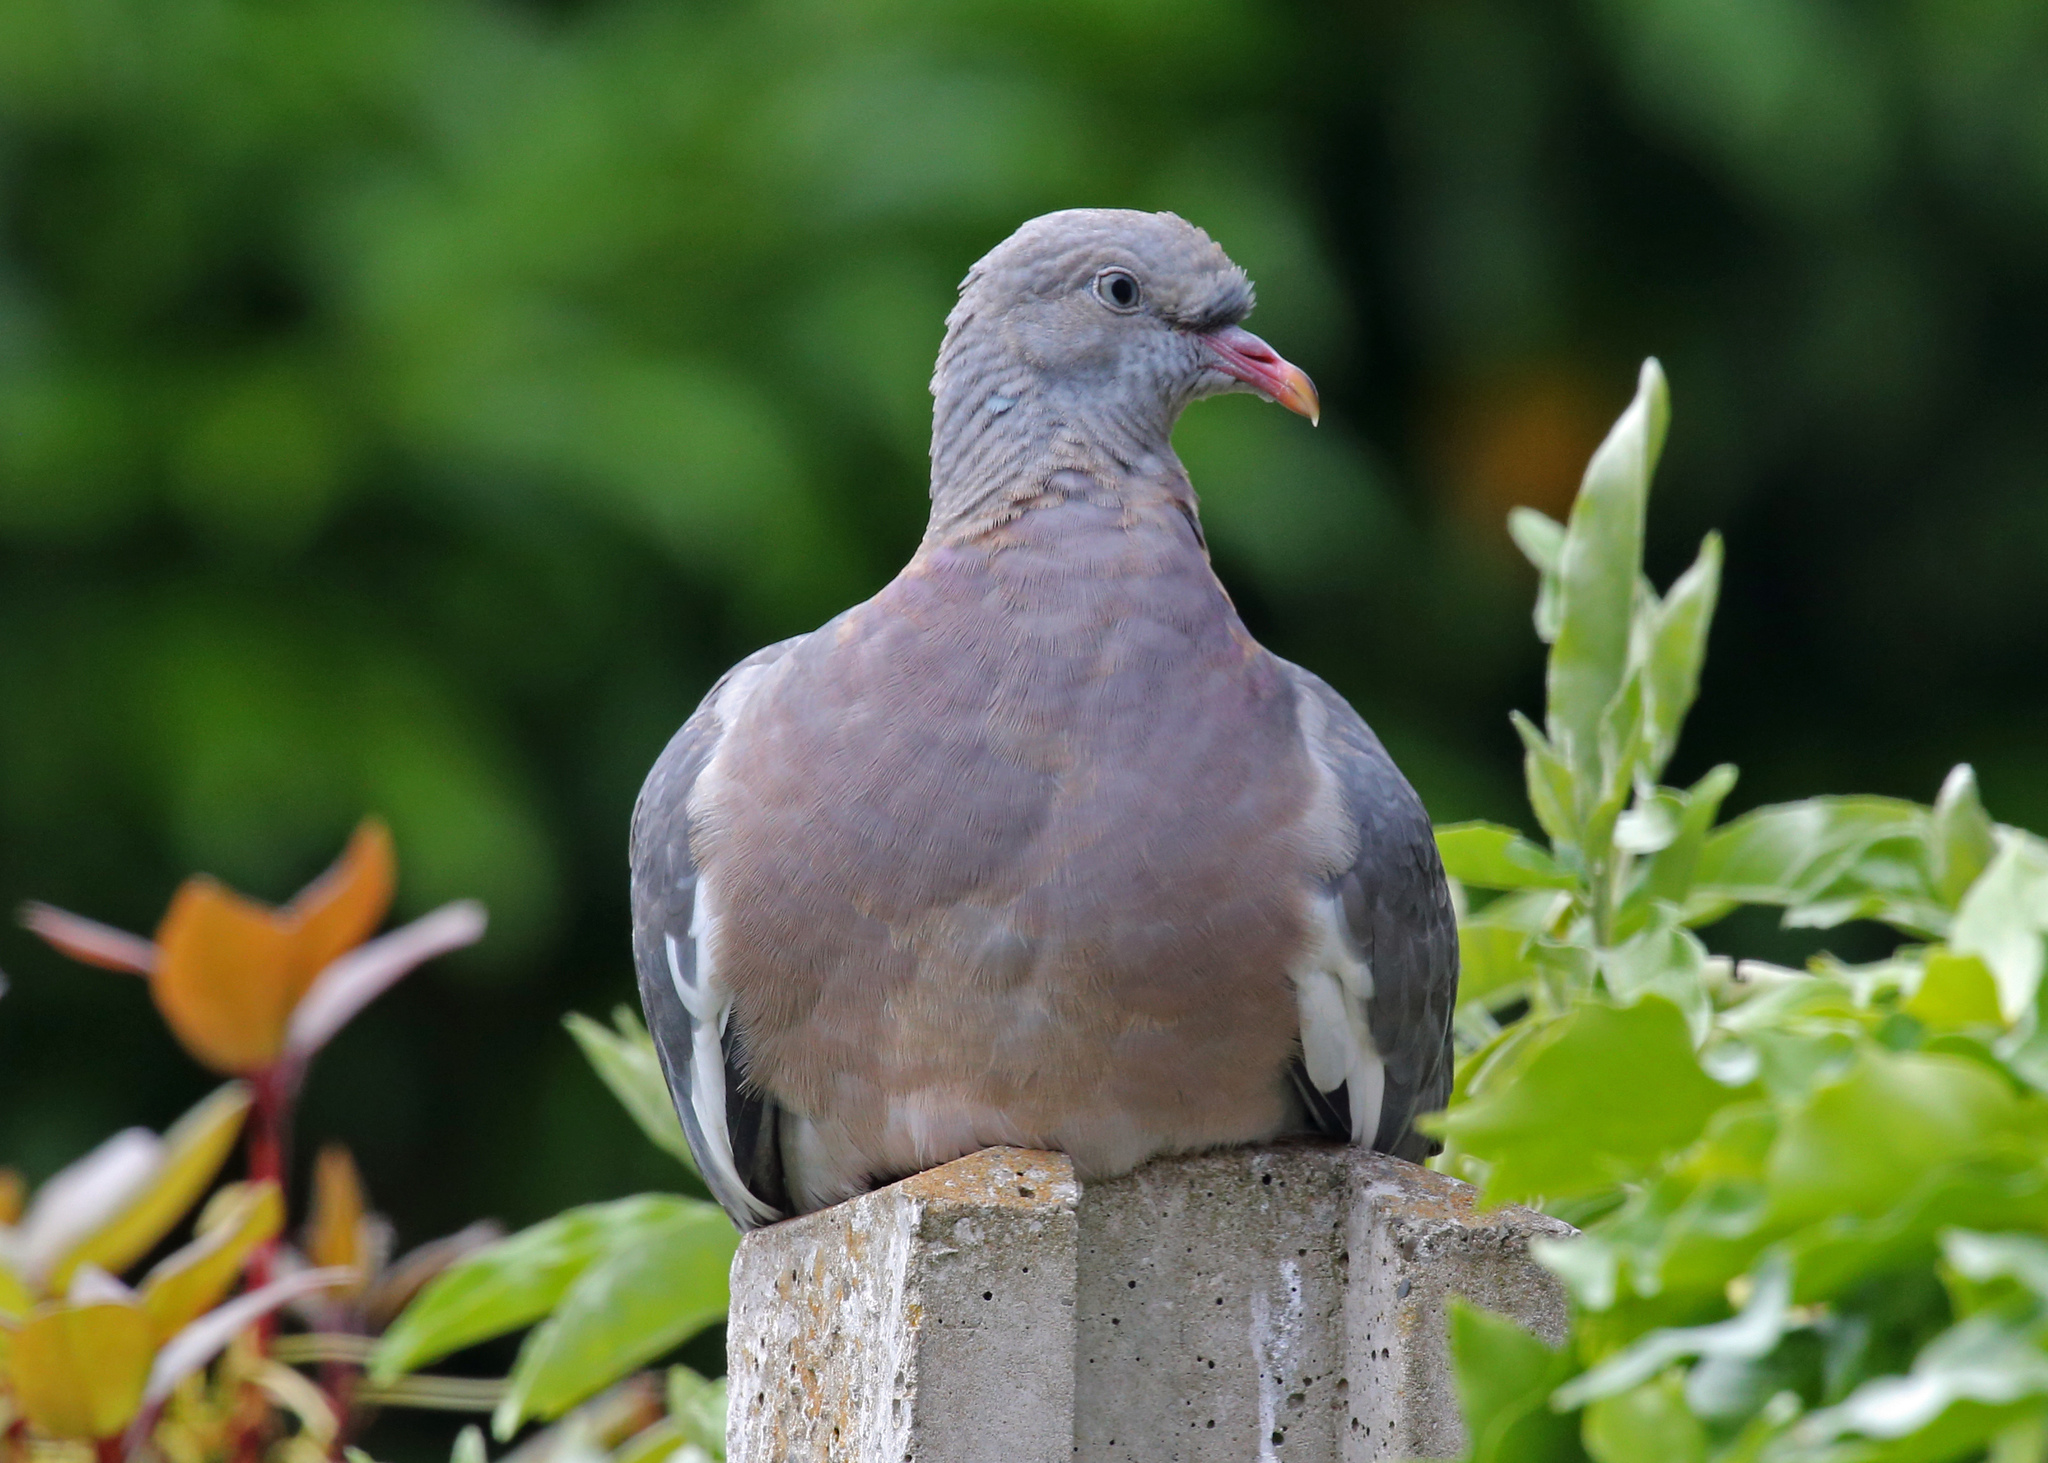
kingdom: Animalia
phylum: Chordata
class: Aves
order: Columbiformes
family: Columbidae
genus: Columba
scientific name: Columba palumbus
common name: Common wood pigeon
